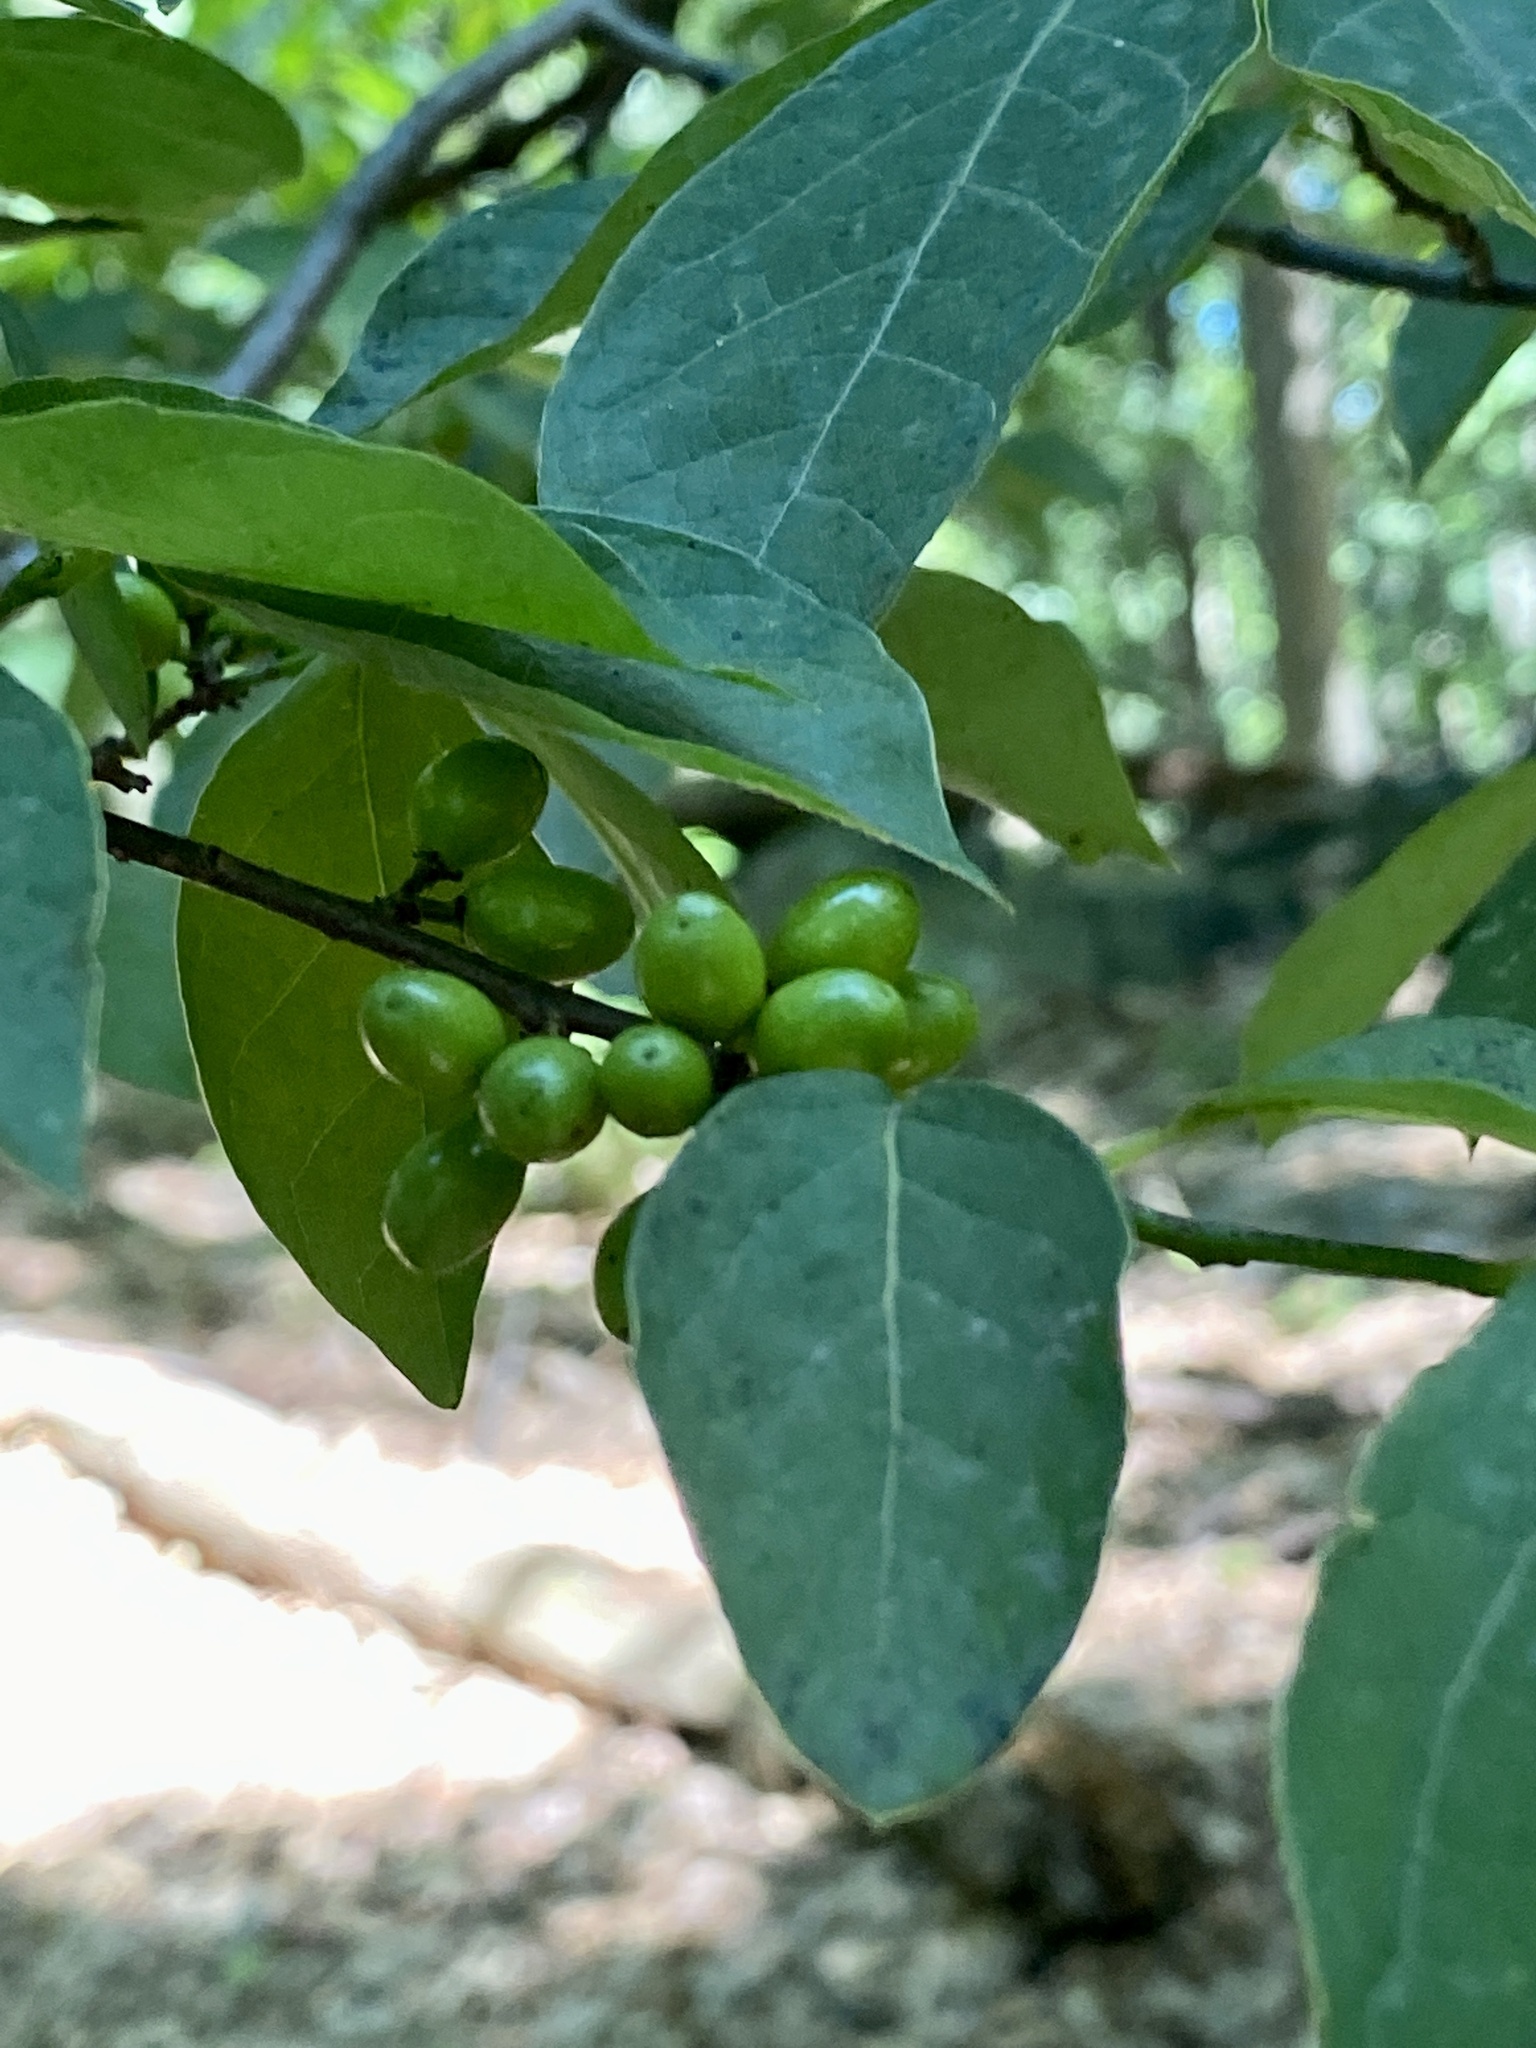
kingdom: Plantae
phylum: Tracheophyta
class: Magnoliopsida
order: Laurales
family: Lauraceae
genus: Lindera
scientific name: Lindera benzoin
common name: Spicebush
